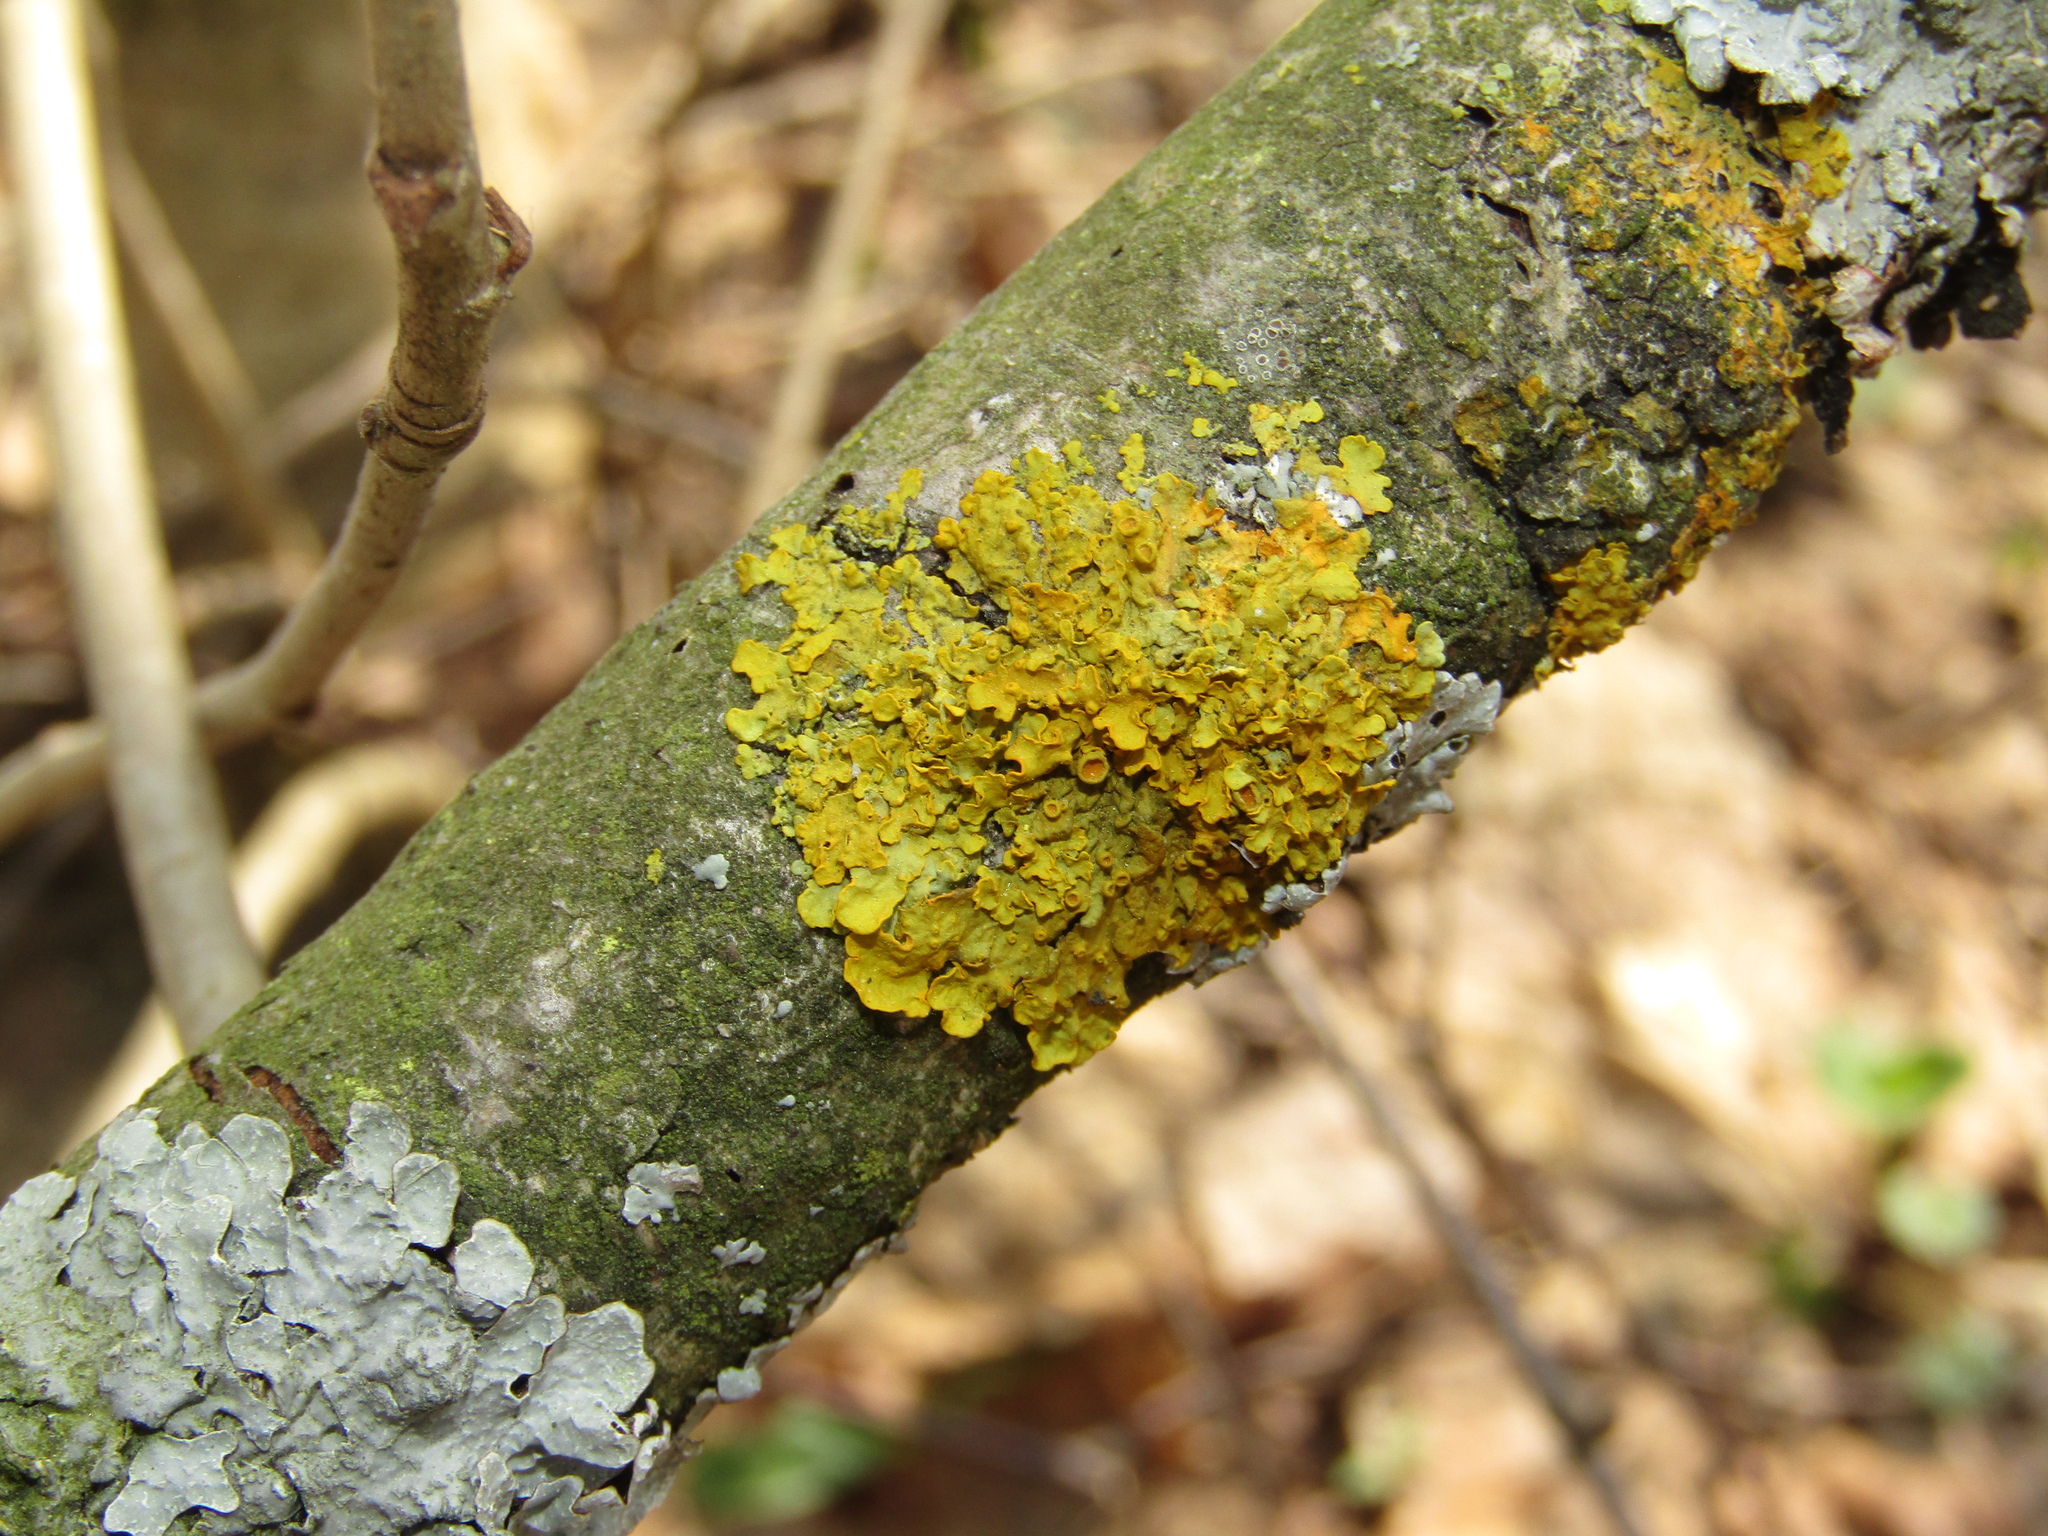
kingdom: Fungi
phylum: Ascomycota
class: Lecanoromycetes
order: Teloschistales
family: Teloschistaceae
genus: Xanthoria
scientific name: Xanthoria parietina
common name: Common orange lichen
